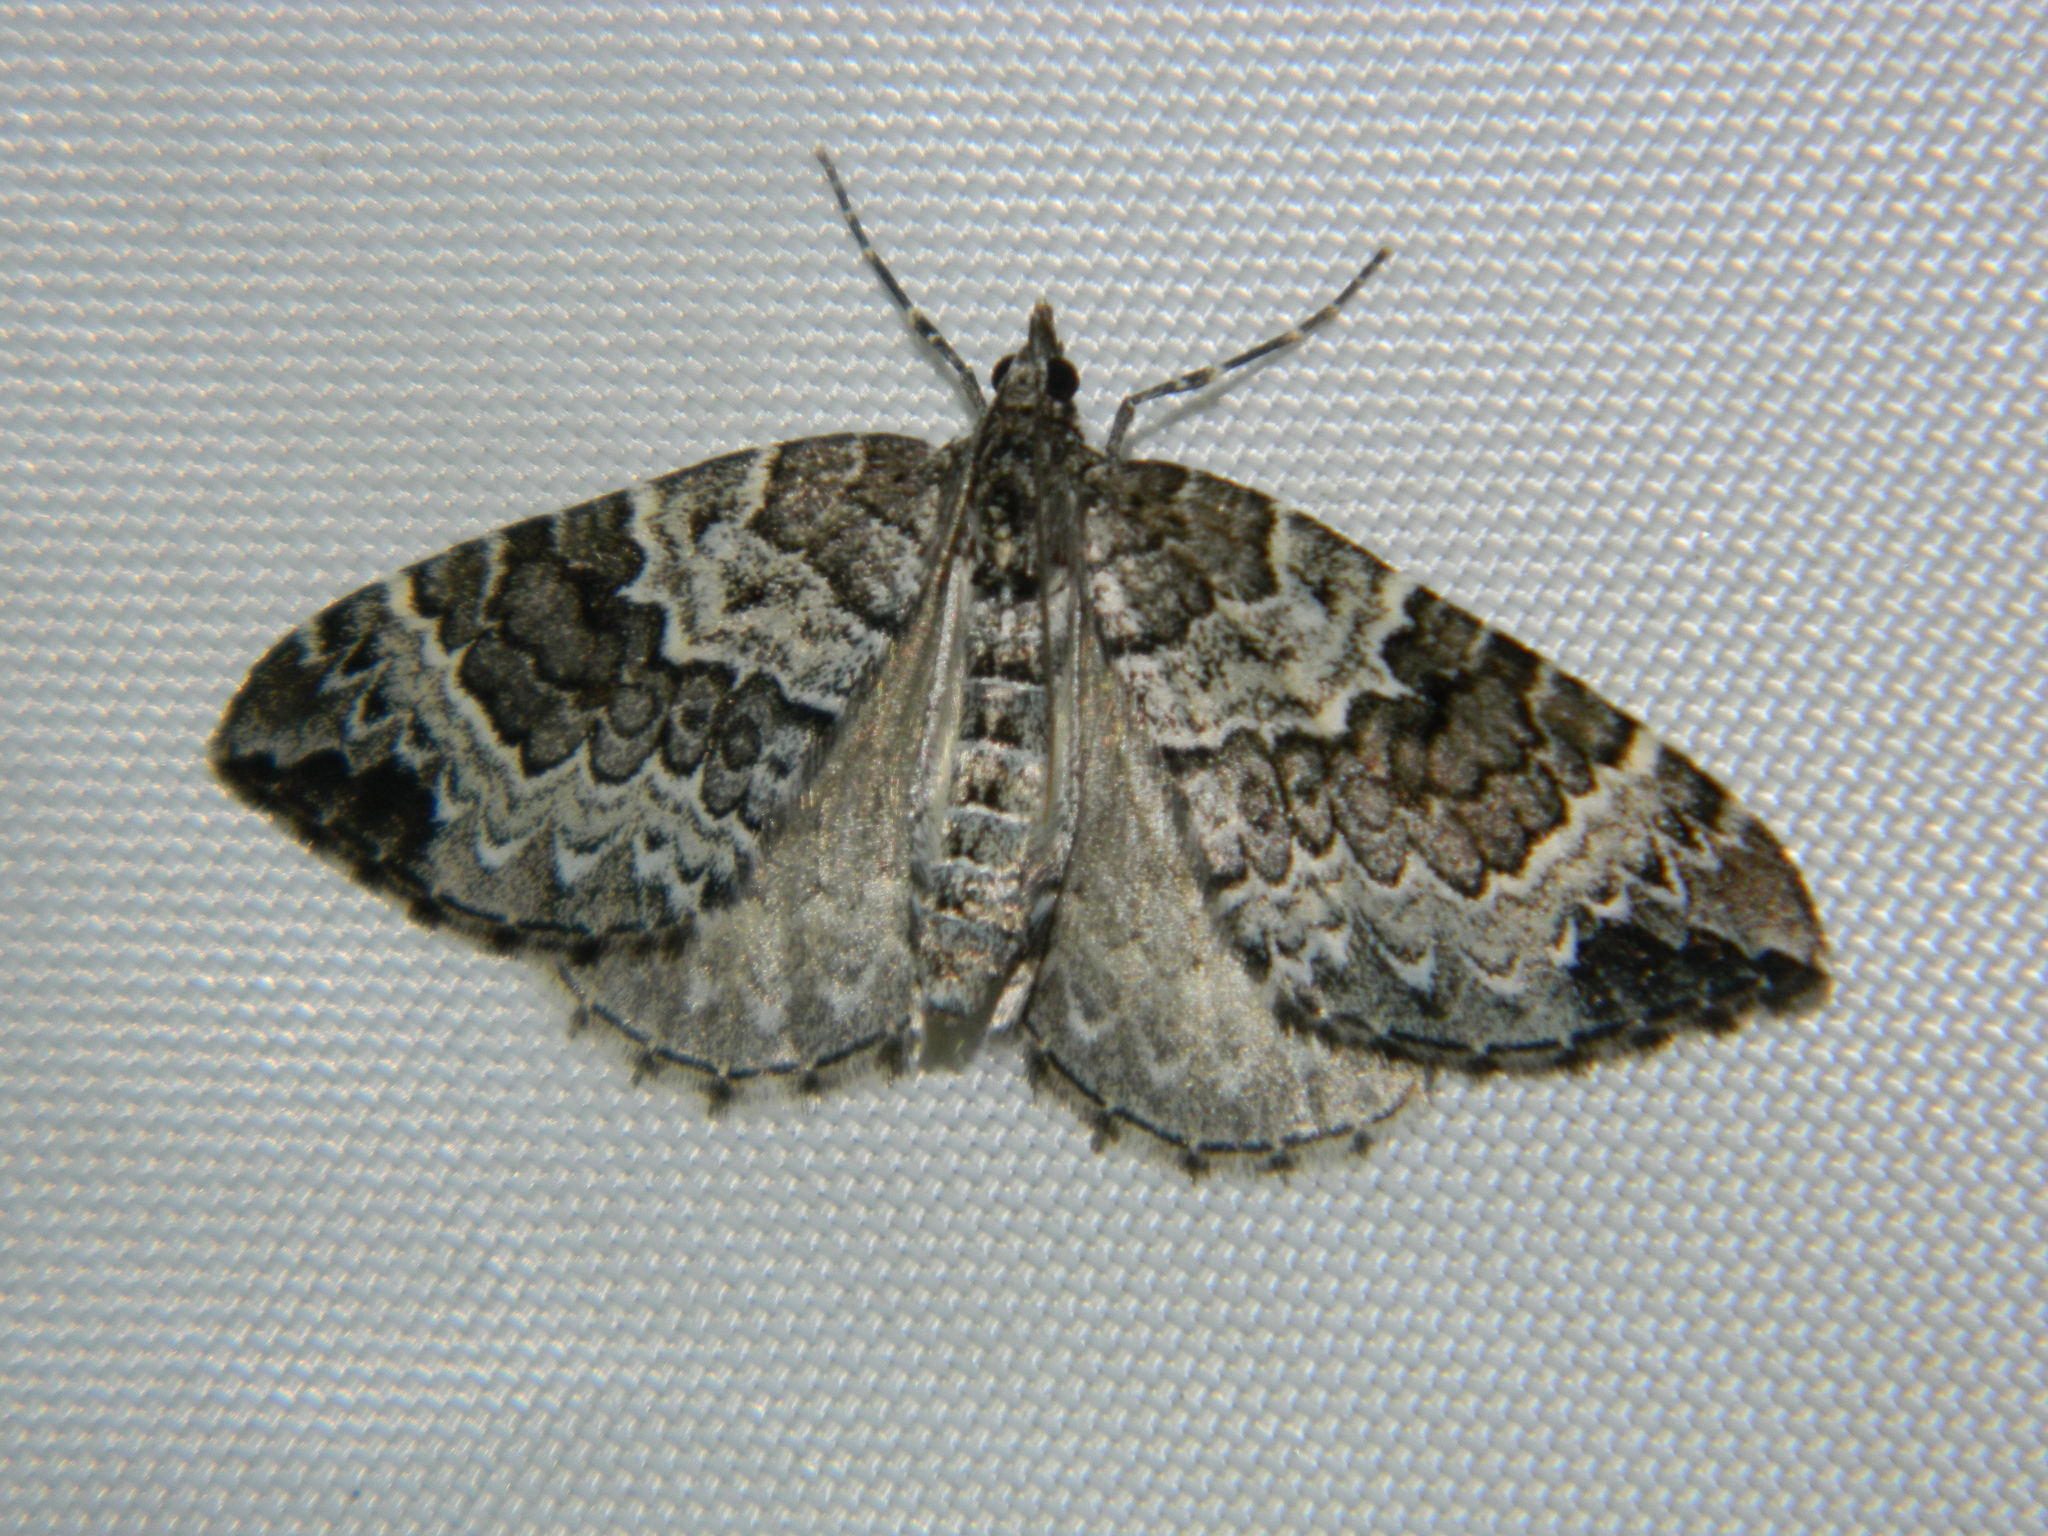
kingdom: Animalia
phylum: Arthropoda
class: Insecta
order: Lepidoptera
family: Geometridae
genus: Eulithis
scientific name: Eulithis explanata
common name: White eulithis
